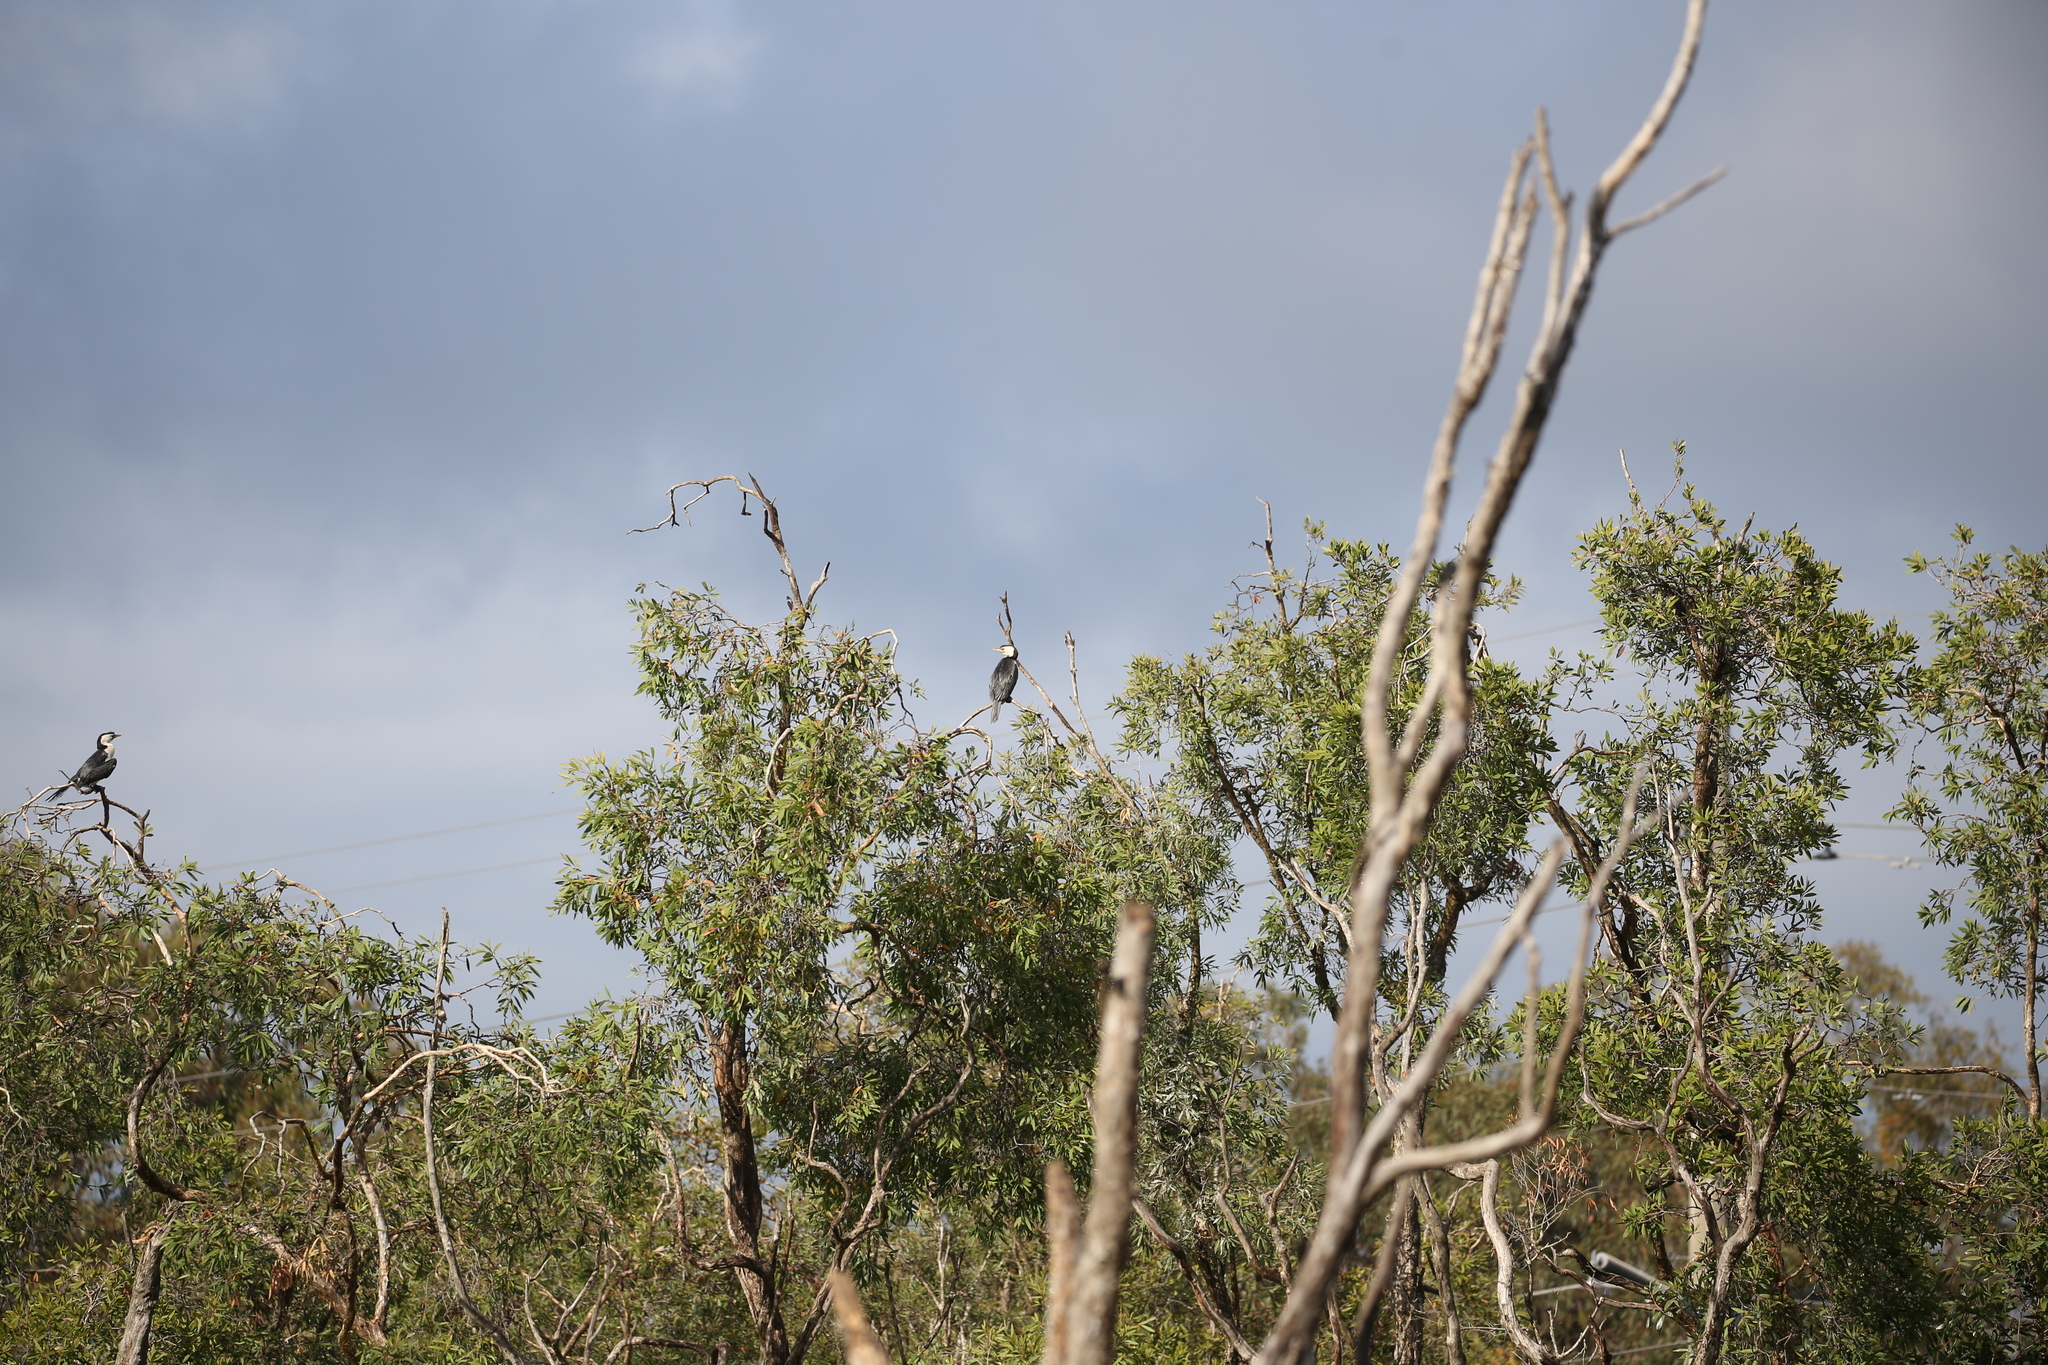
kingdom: Animalia
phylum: Chordata
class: Aves
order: Suliformes
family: Phalacrocoracidae
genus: Microcarbo
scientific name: Microcarbo melanoleucos
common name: Little pied cormorant
